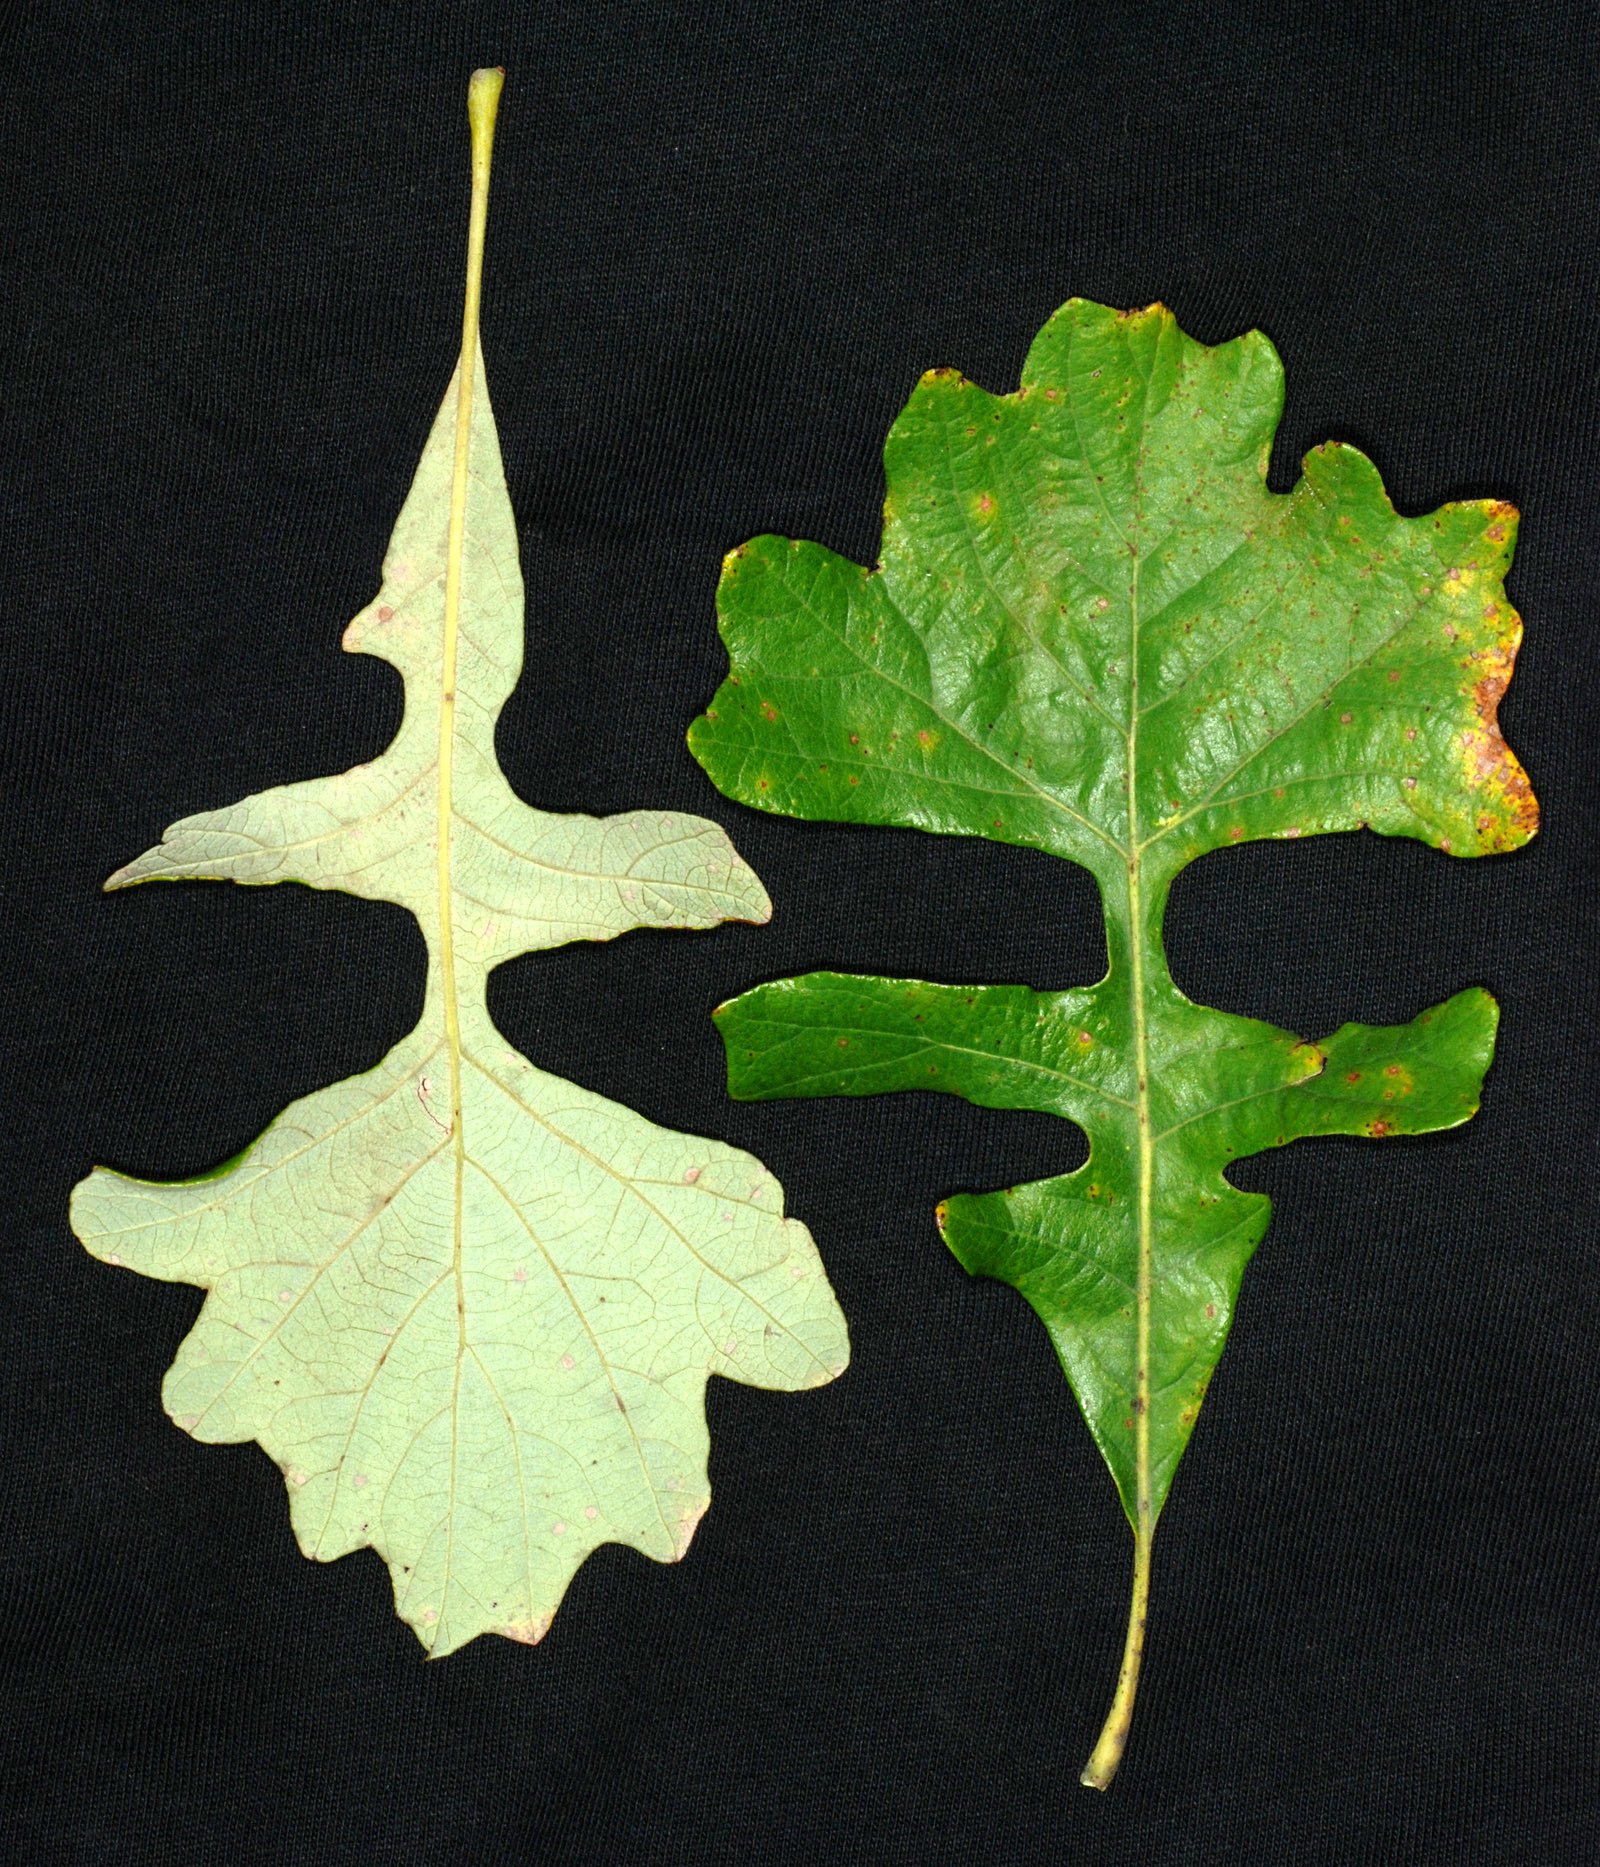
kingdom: Plantae
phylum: Tracheophyta
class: Magnoliopsida
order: Fagales
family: Fagaceae
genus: Quercus
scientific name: Quercus macrocarpa
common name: Bur oak
